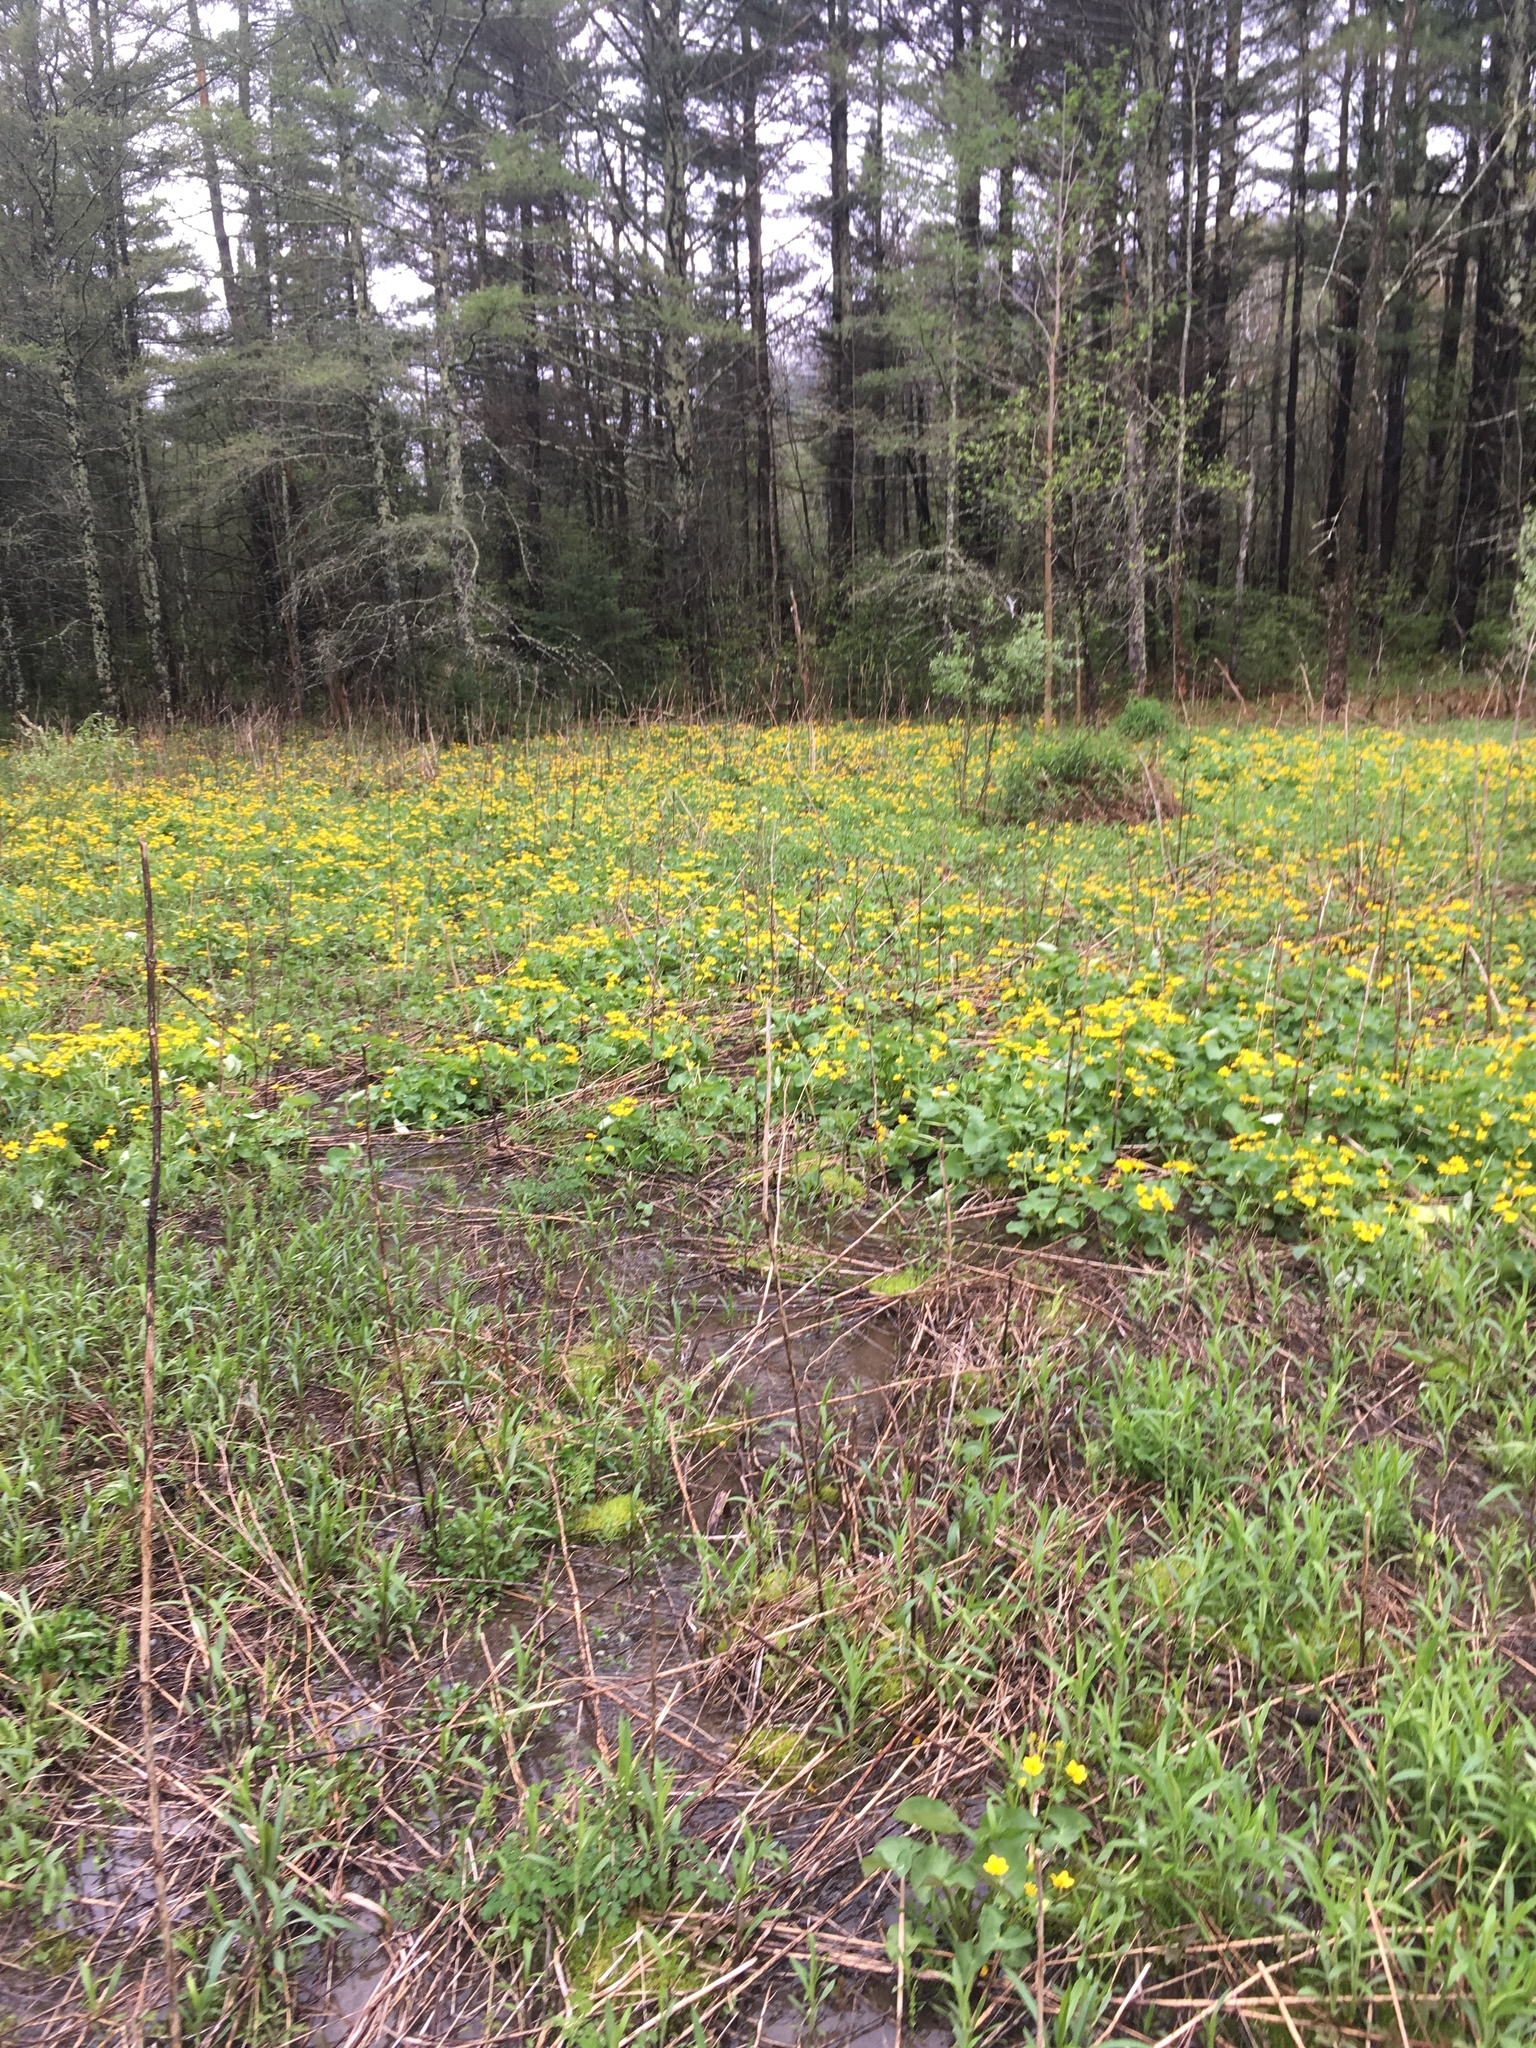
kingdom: Plantae
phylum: Tracheophyta
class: Magnoliopsida
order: Ranunculales
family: Ranunculaceae
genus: Caltha
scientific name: Caltha palustris
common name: Marsh marigold
